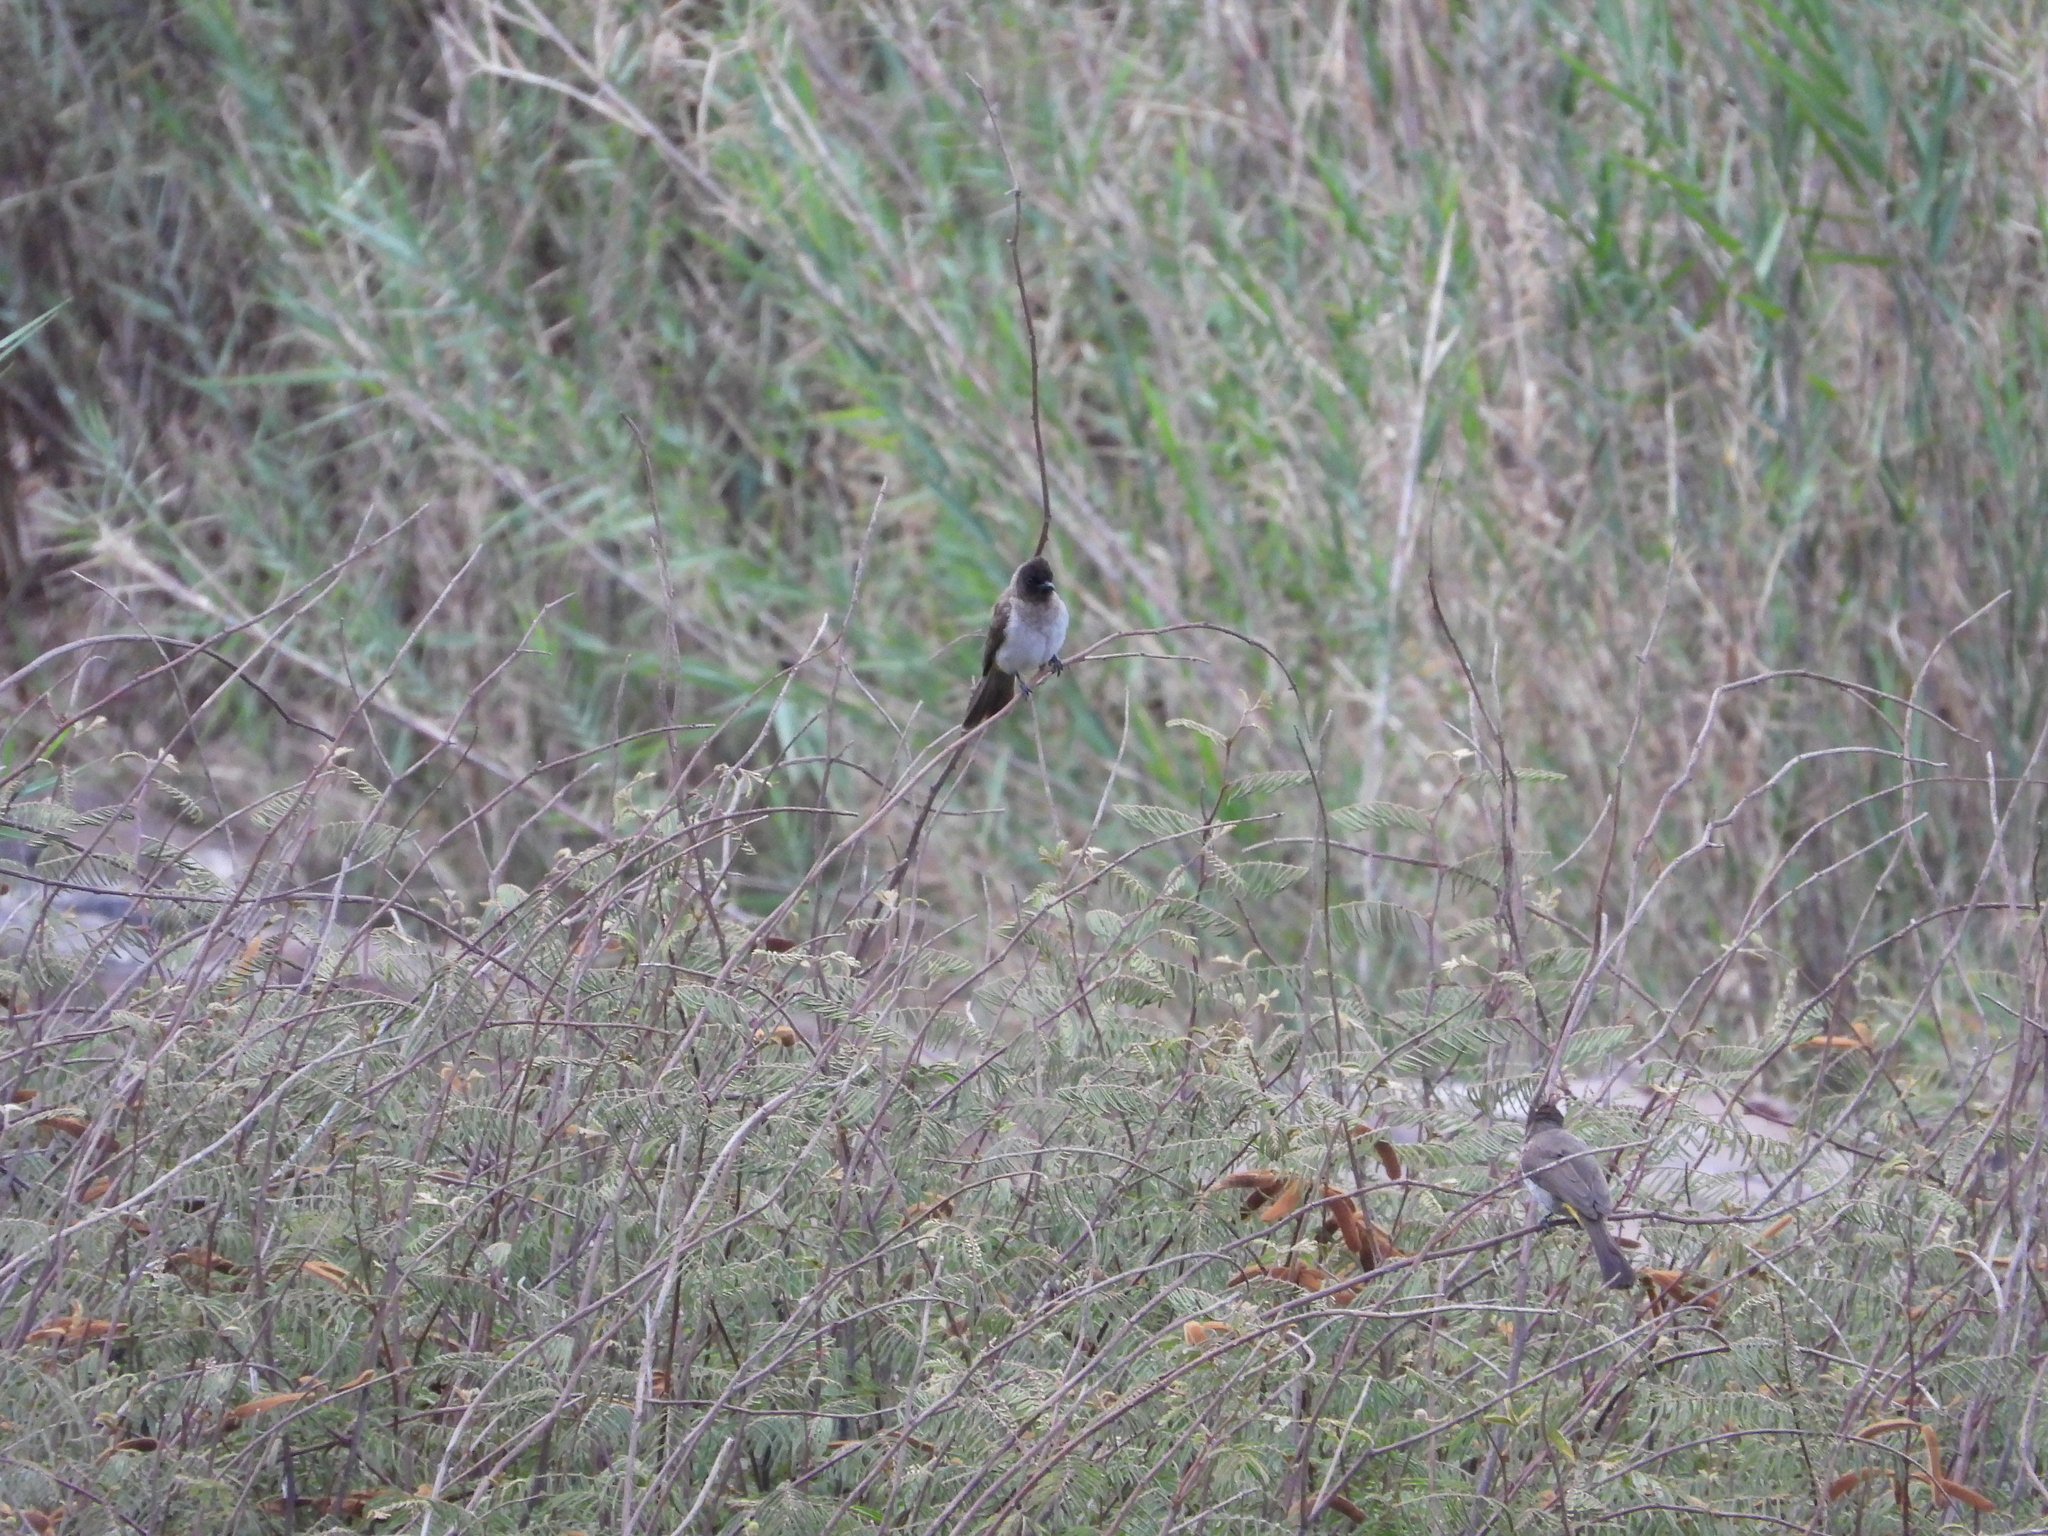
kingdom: Animalia
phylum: Chordata
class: Aves
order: Passeriformes
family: Pycnonotidae
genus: Pycnonotus
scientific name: Pycnonotus barbatus
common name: Common bulbul
